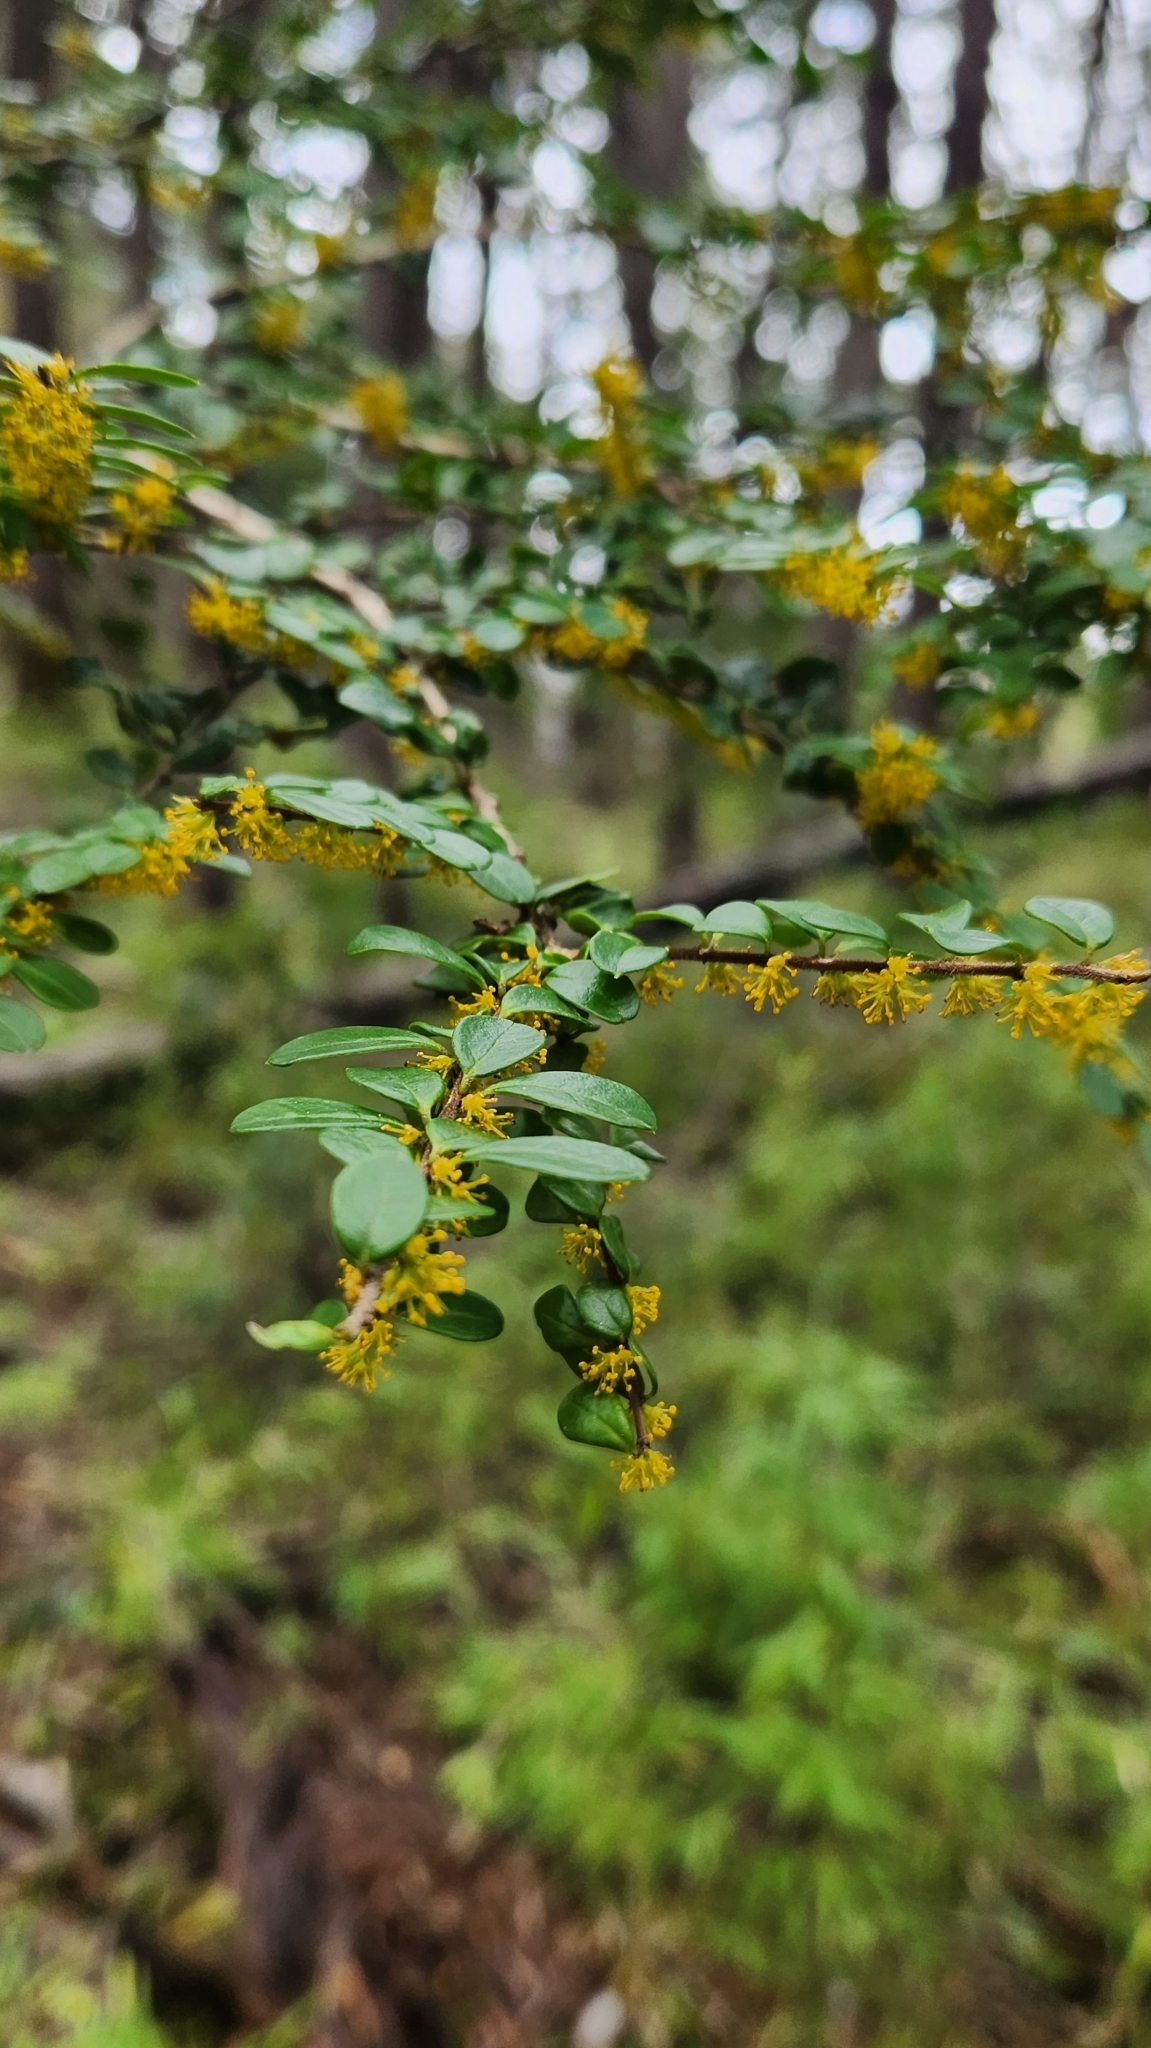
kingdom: Plantae
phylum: Tracheophyta
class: Magnoliopsida
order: Malpighiales
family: Salicaceae
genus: Azara
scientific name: Azara microphylla
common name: Box-leaf azara
